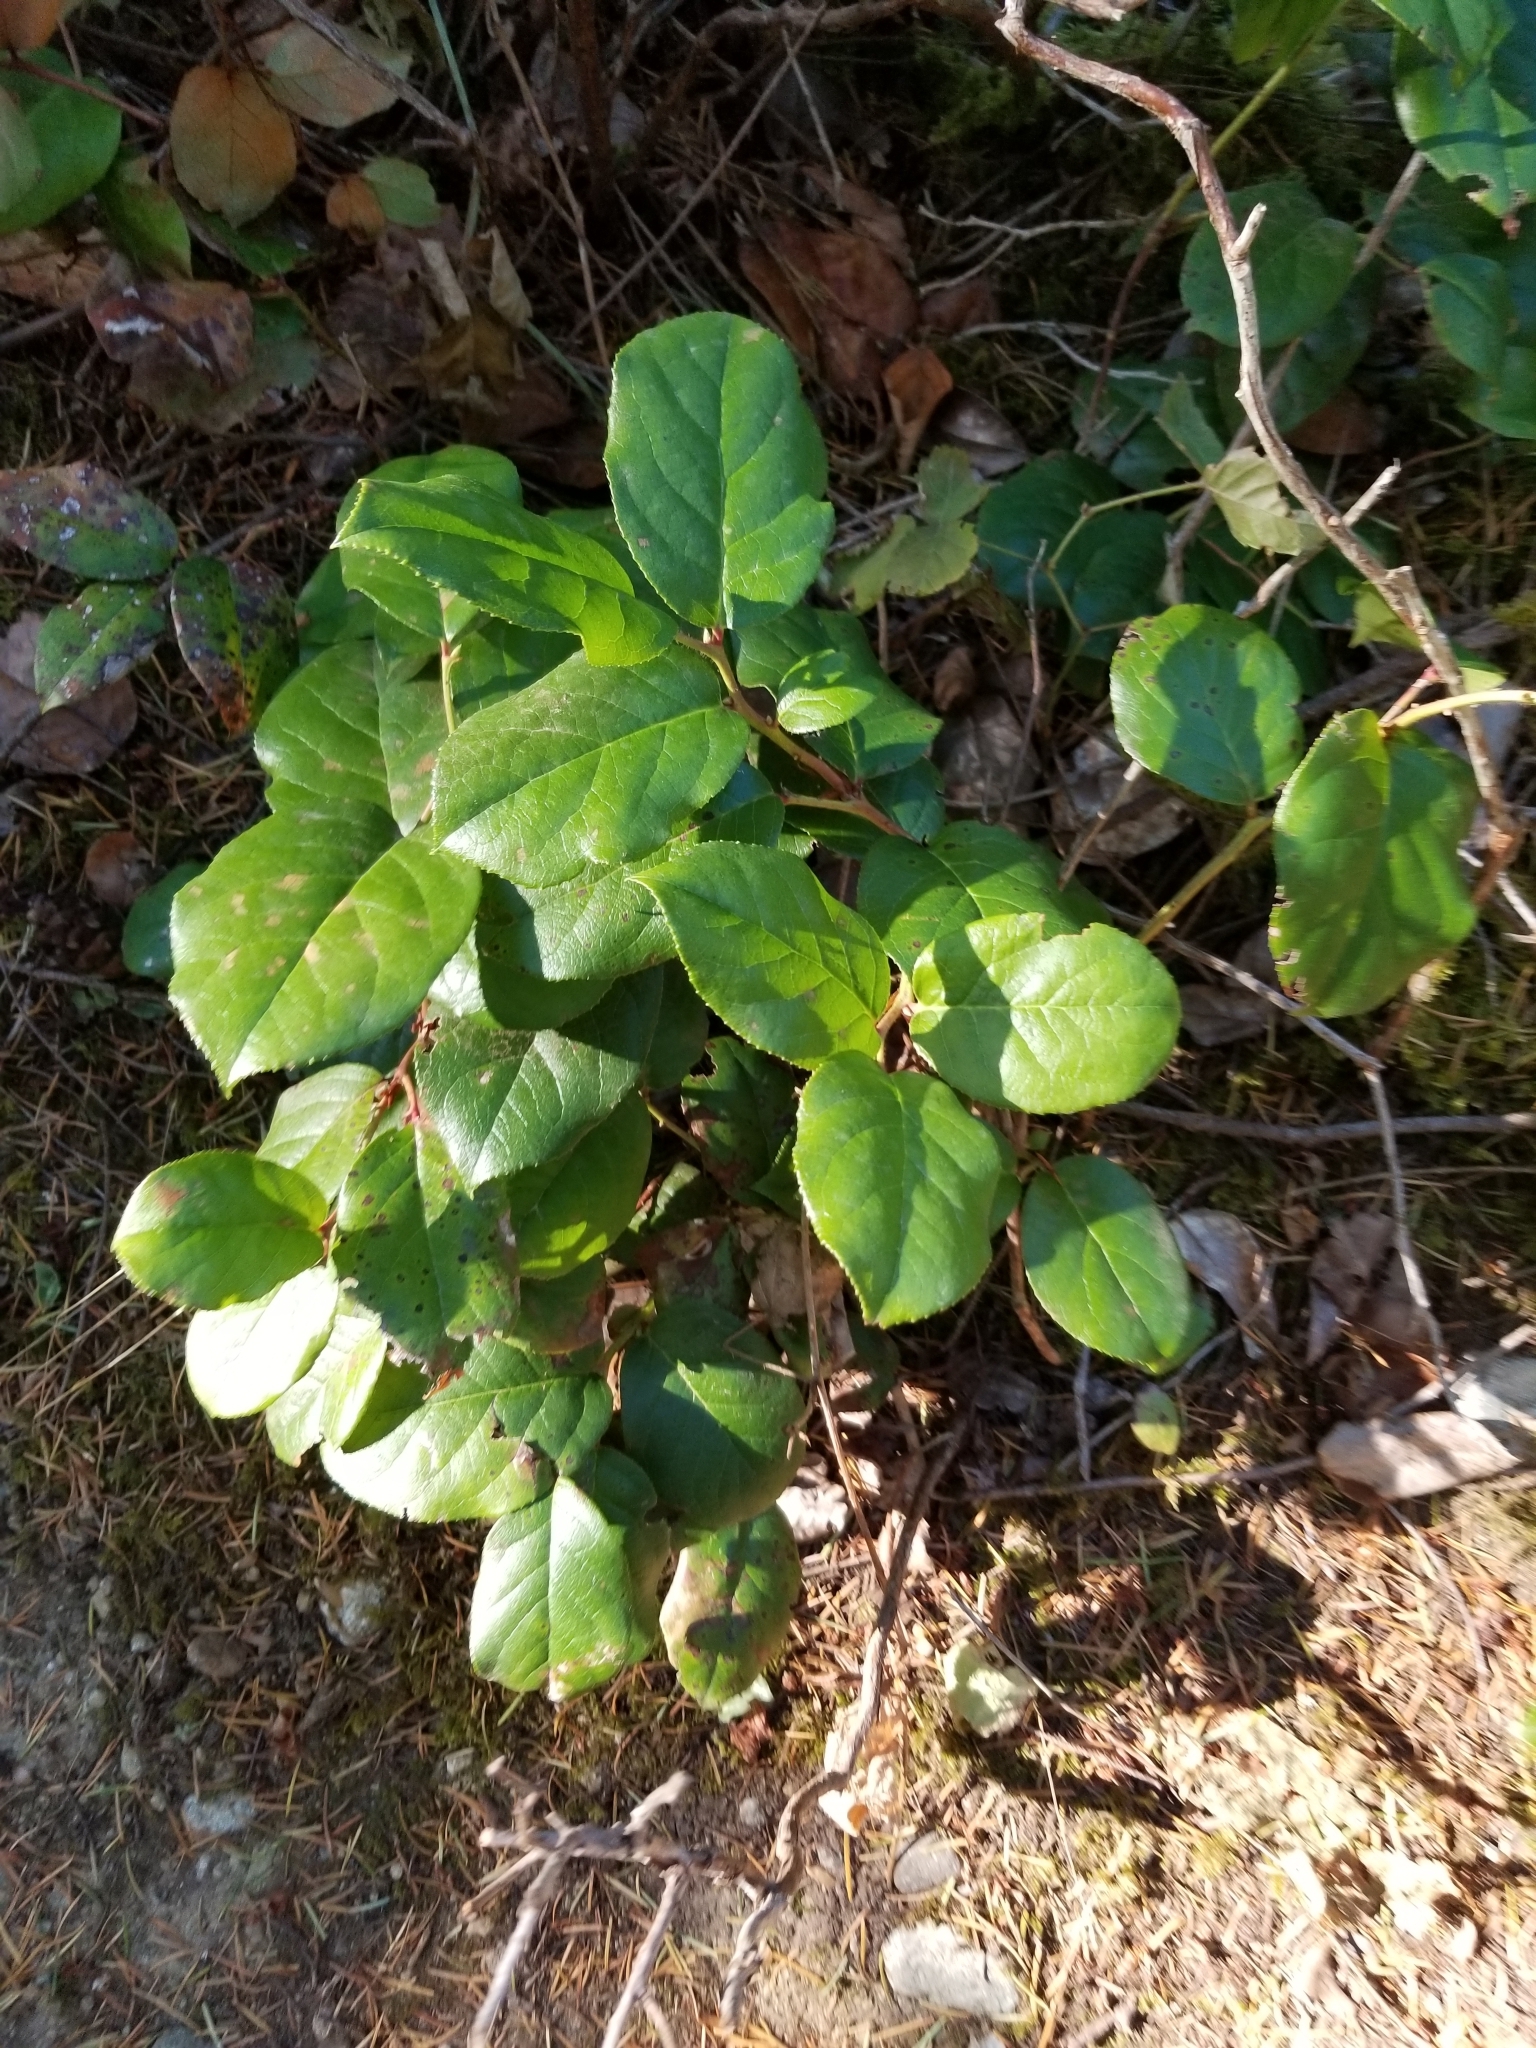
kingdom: Plantae
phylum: Tracheophyta
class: Magnoliopsida
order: Ericales
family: Ericaceae
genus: Gaultheria
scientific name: Gaultheria shallon
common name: Shallon
